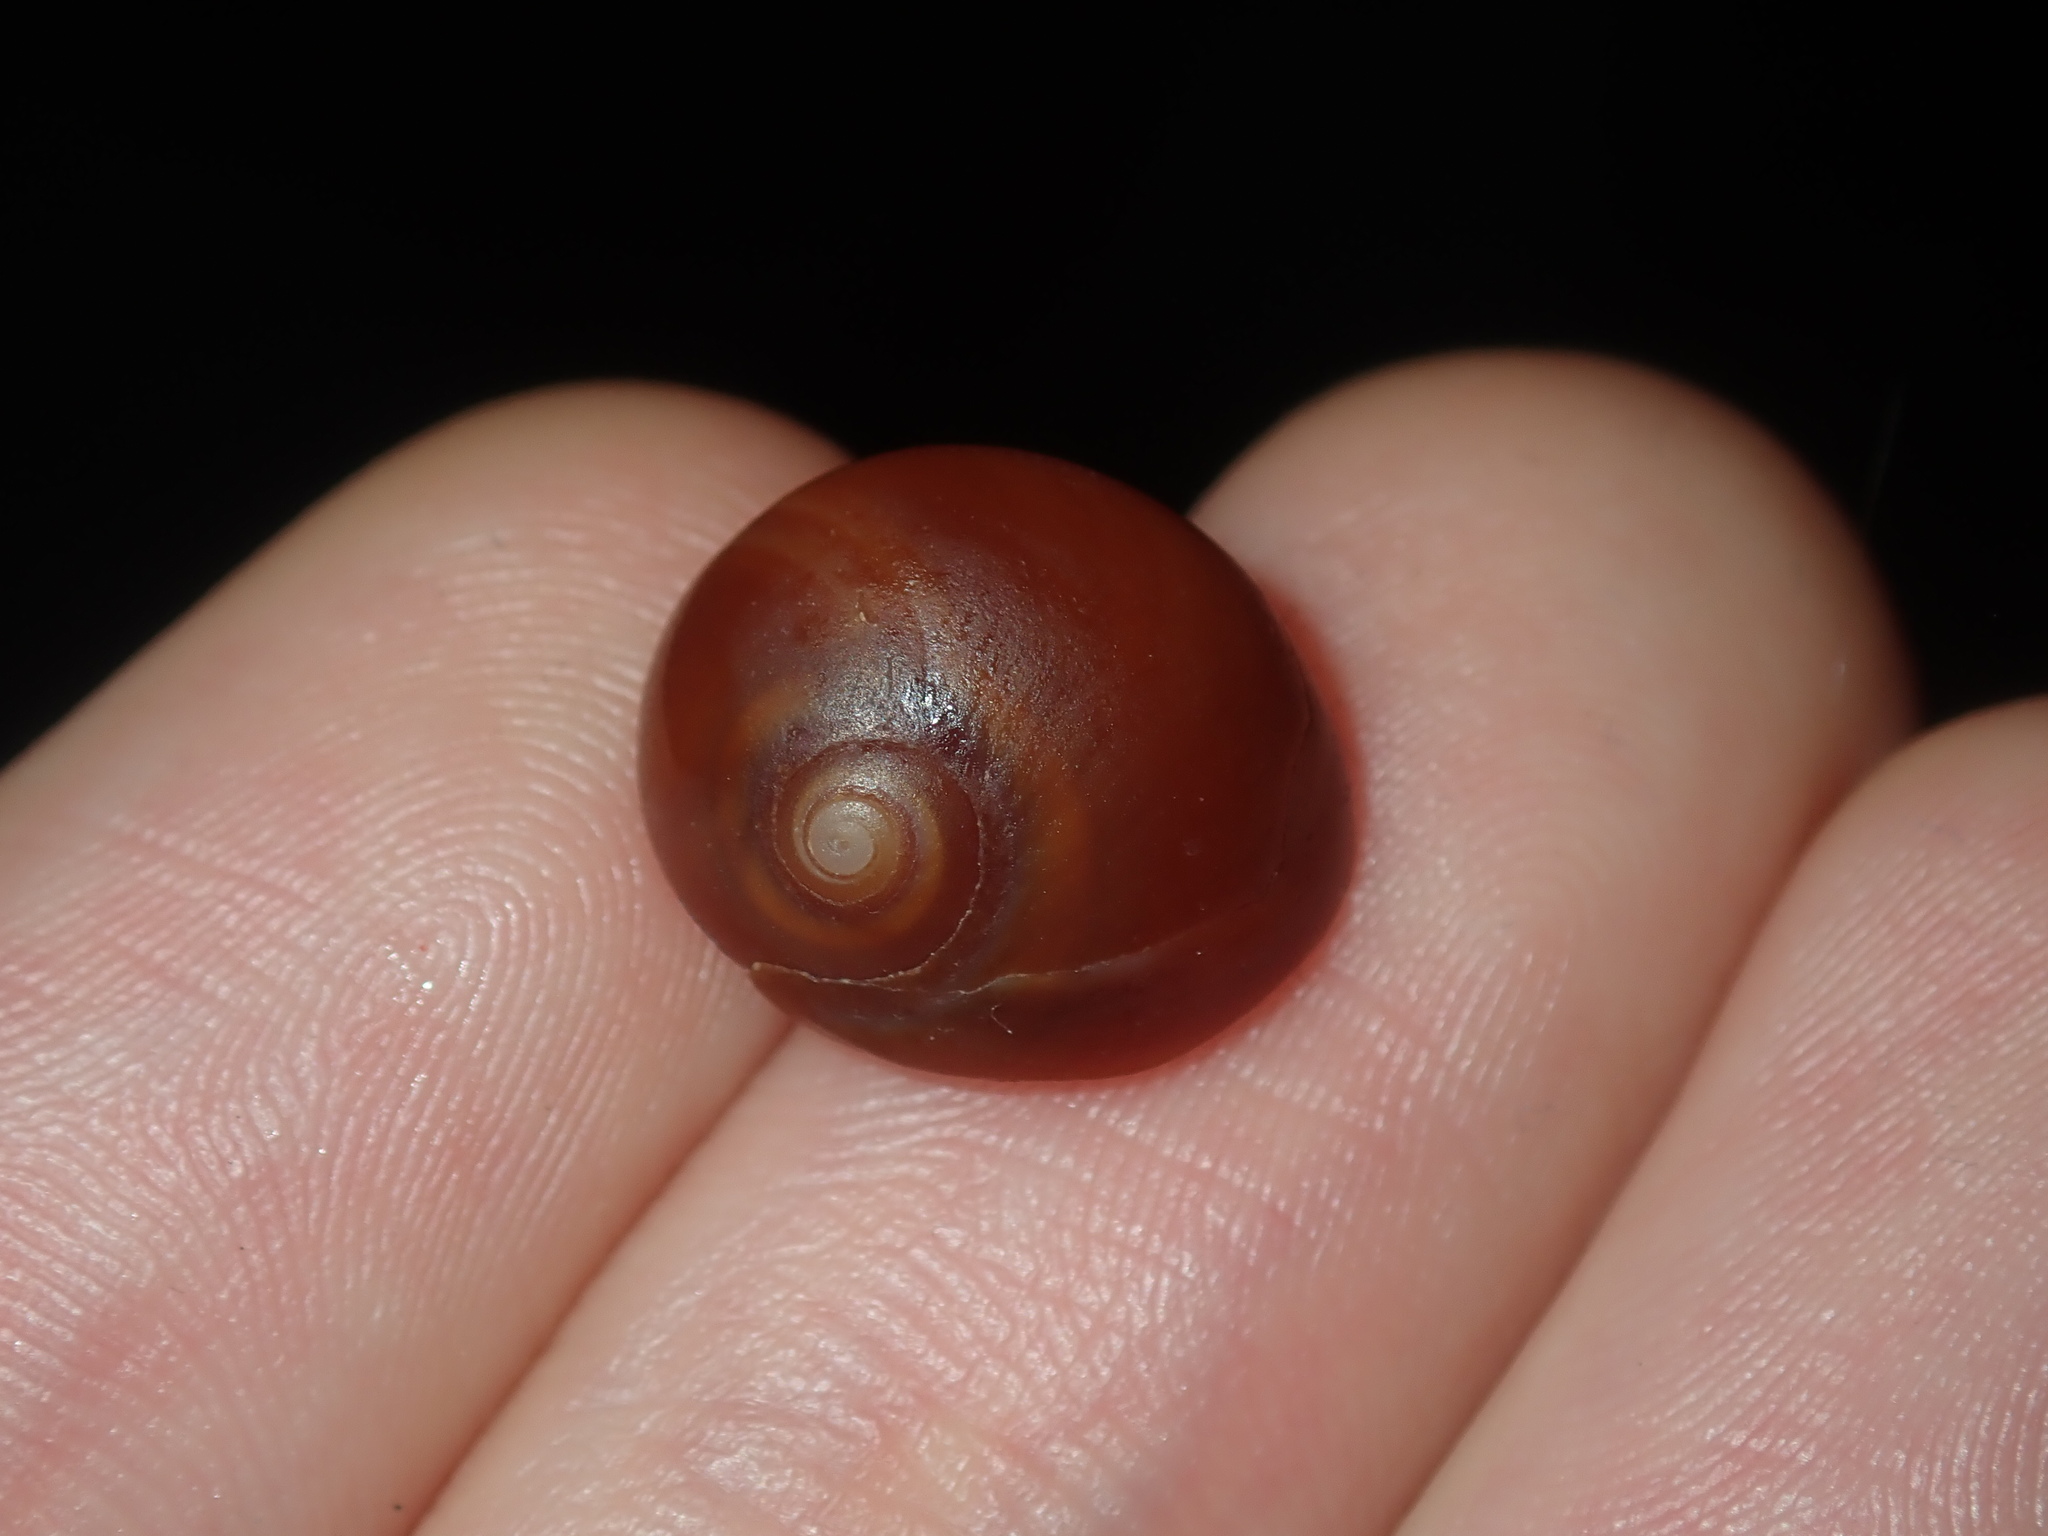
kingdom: Animalia
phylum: Mollusca
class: Gastropoda
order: Littorinimorpha
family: Naticidae
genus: Conuber
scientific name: Conuber incei
